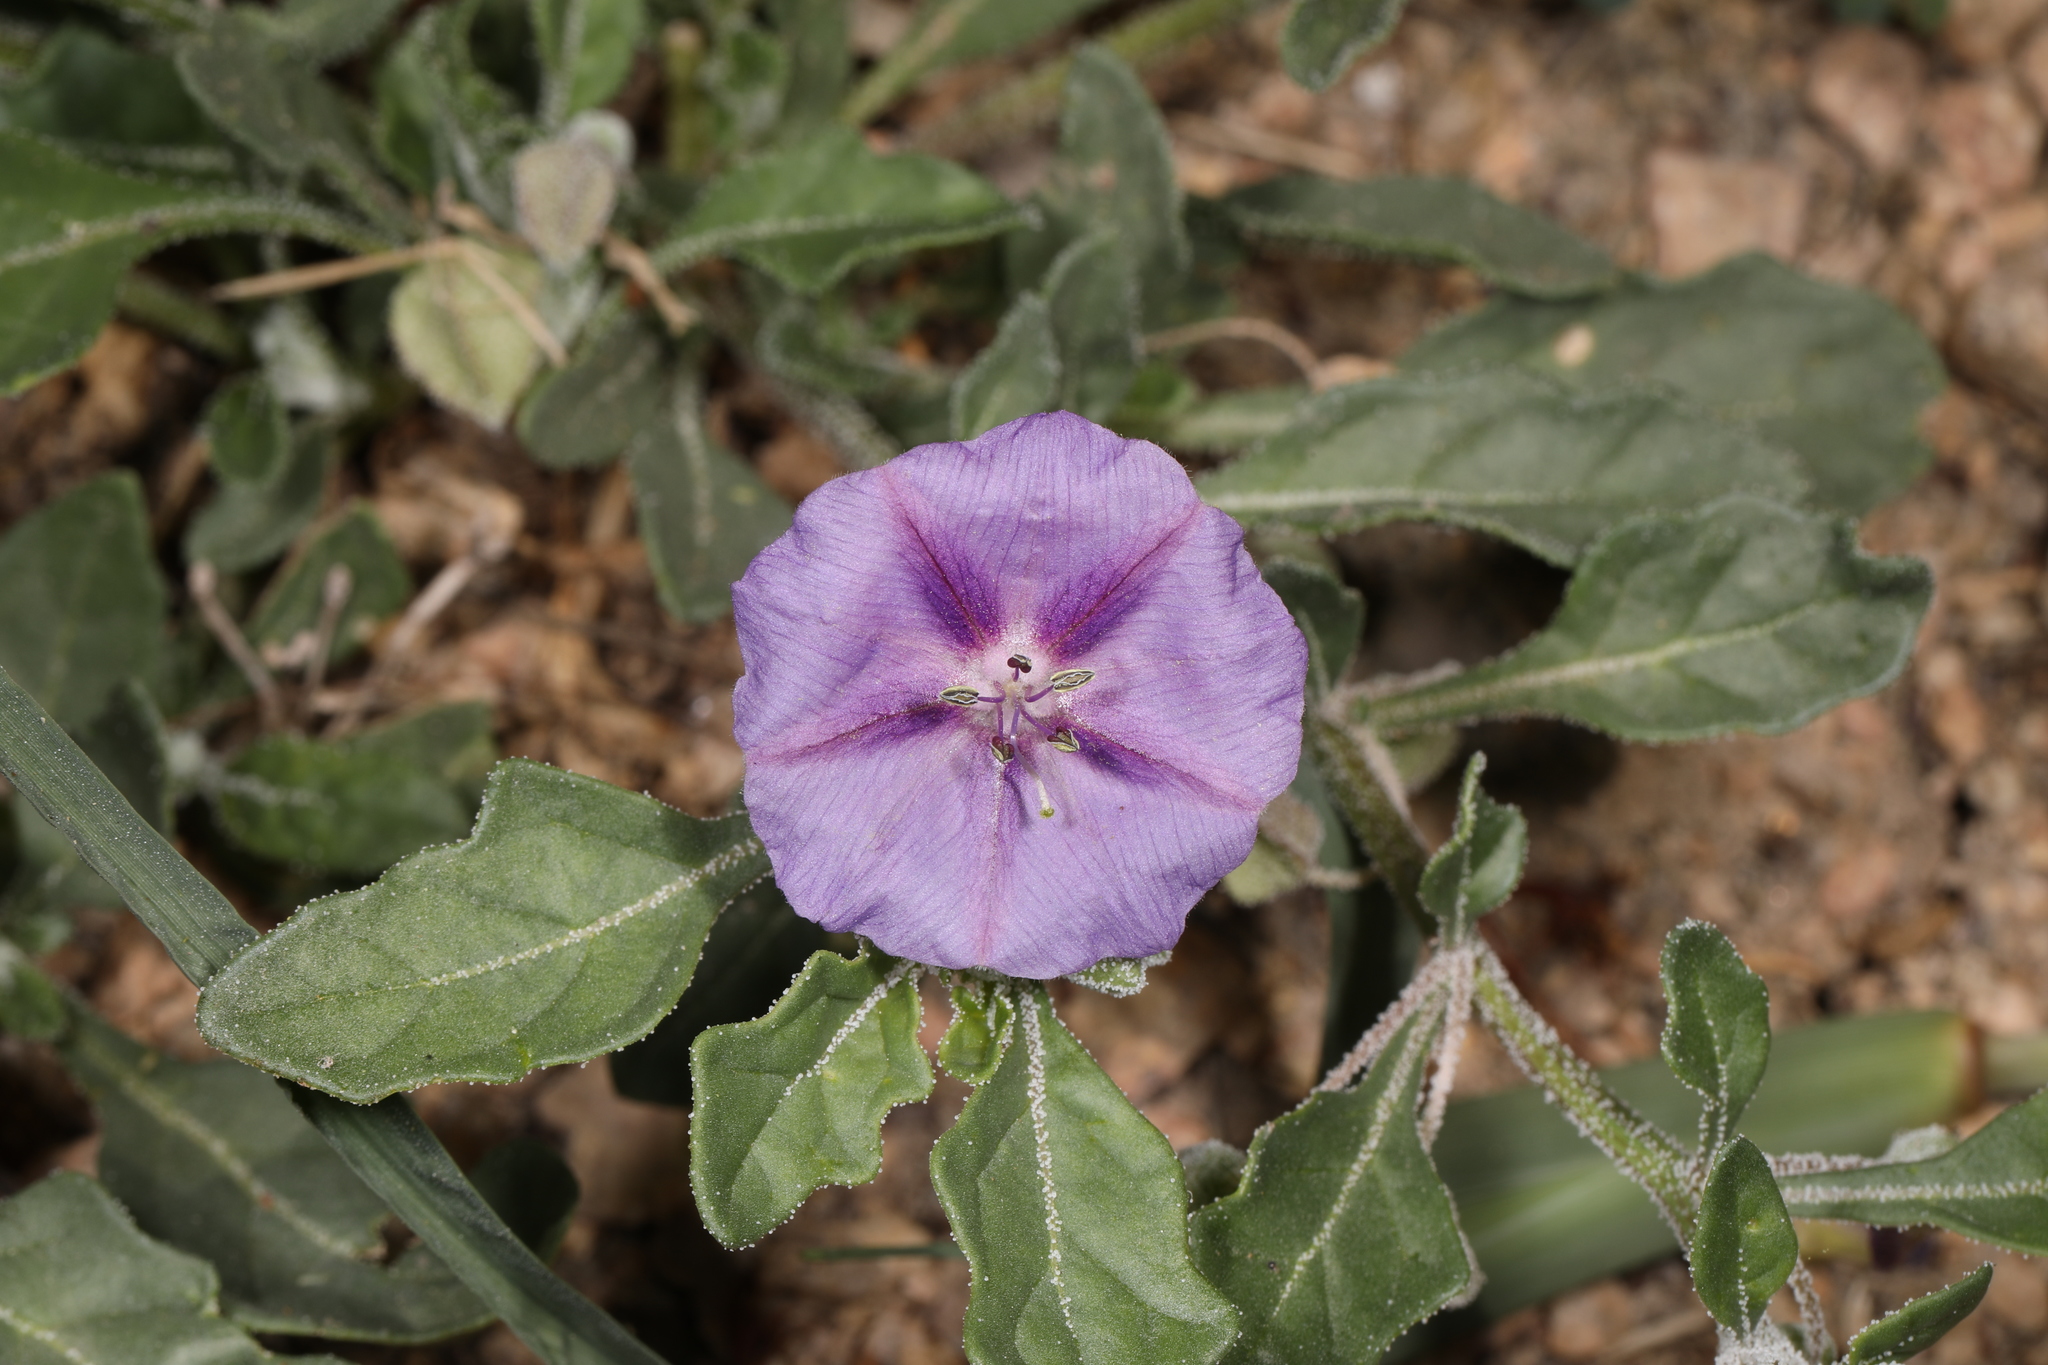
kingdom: Plantae
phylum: Tracheophyta
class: Magnoliopsida
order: Solanales
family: Solanaceae
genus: Quincula
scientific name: Quincula lobata
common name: Purple-ground-cherry
